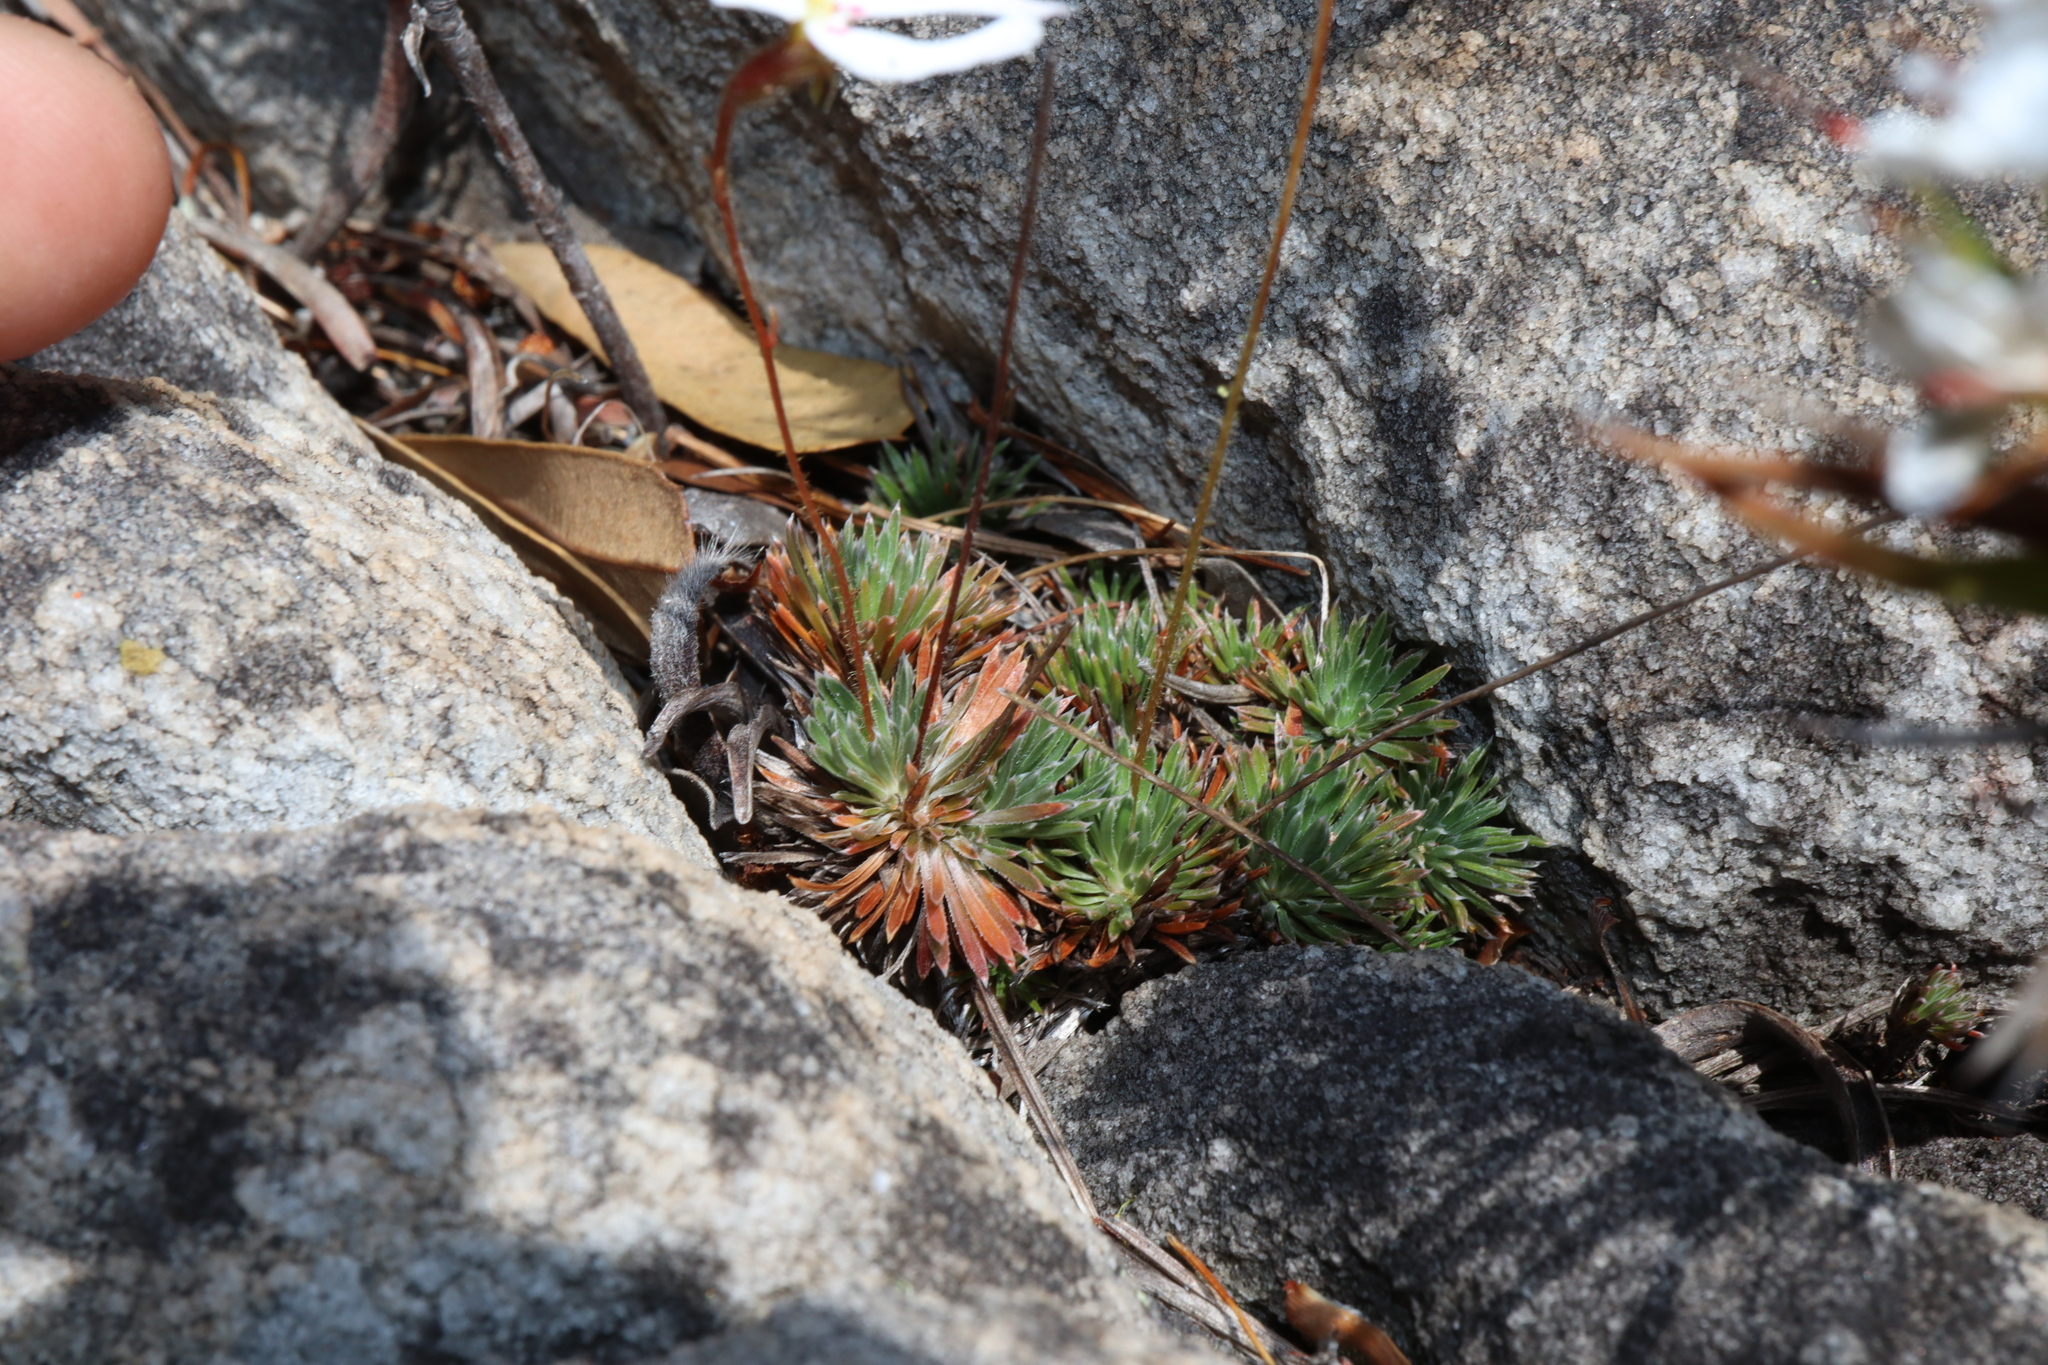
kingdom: Plantae
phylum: Tracheophyta
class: Magnoliopsida
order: Asterales
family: Stylidiaceae
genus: Stylidium
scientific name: Stylidium spinulosum
